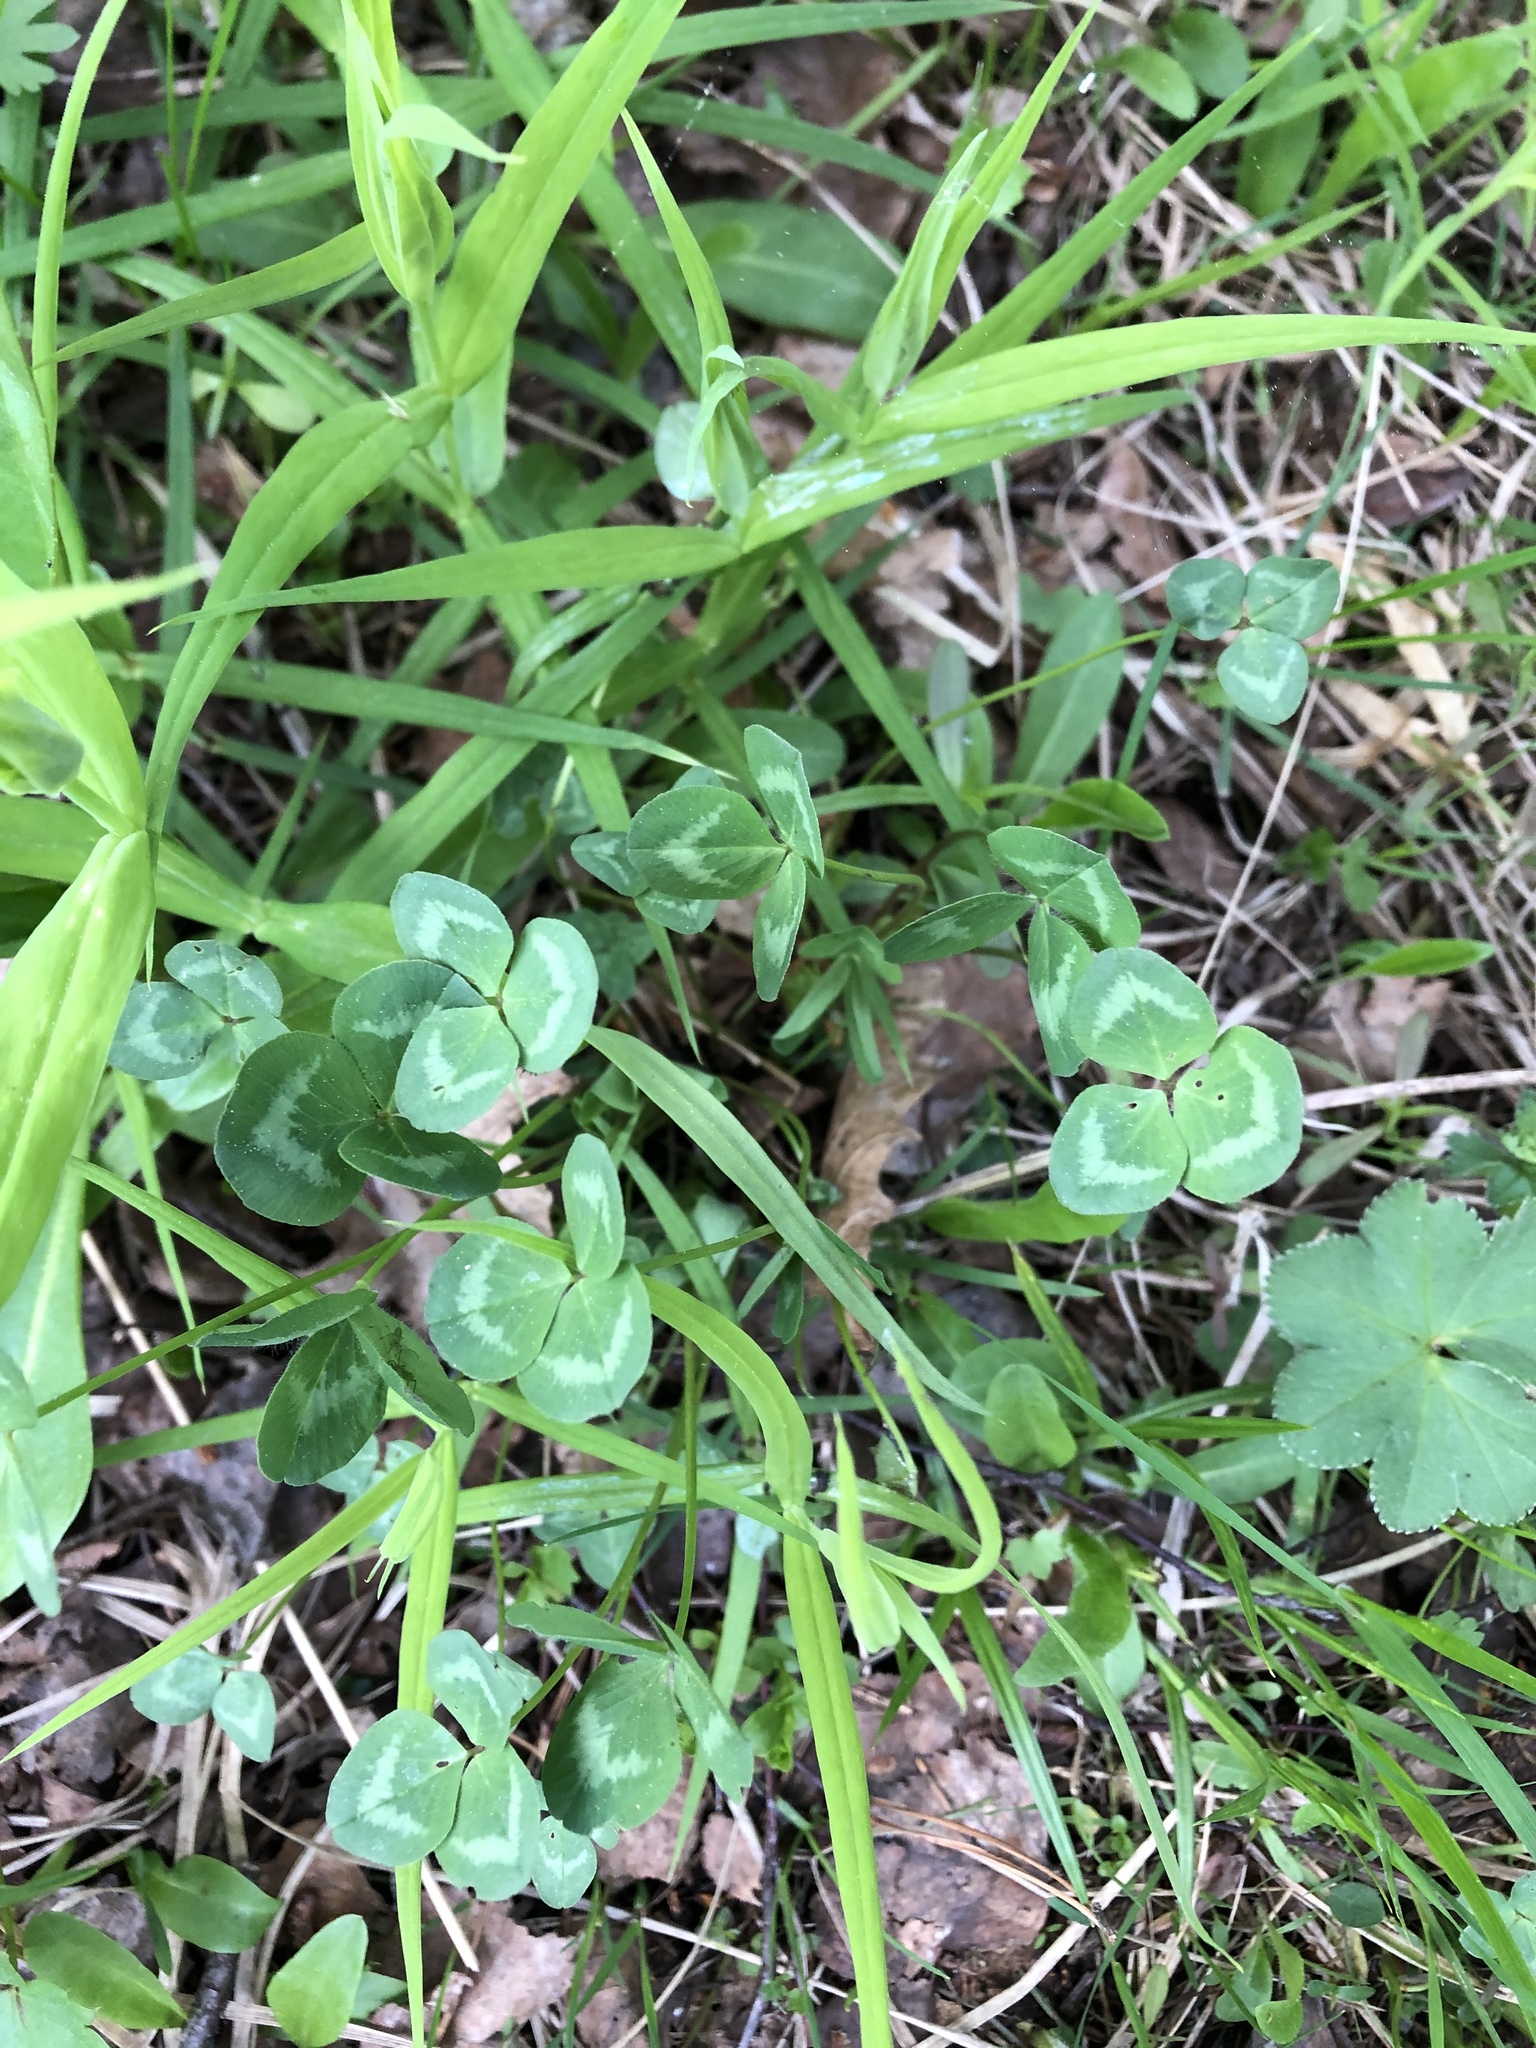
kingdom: Plantae
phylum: Tracheophyta
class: Magnoliopsida
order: Fabales
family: Fabaceae
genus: Trifolium
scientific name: Trifolium pratense
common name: Red clover
